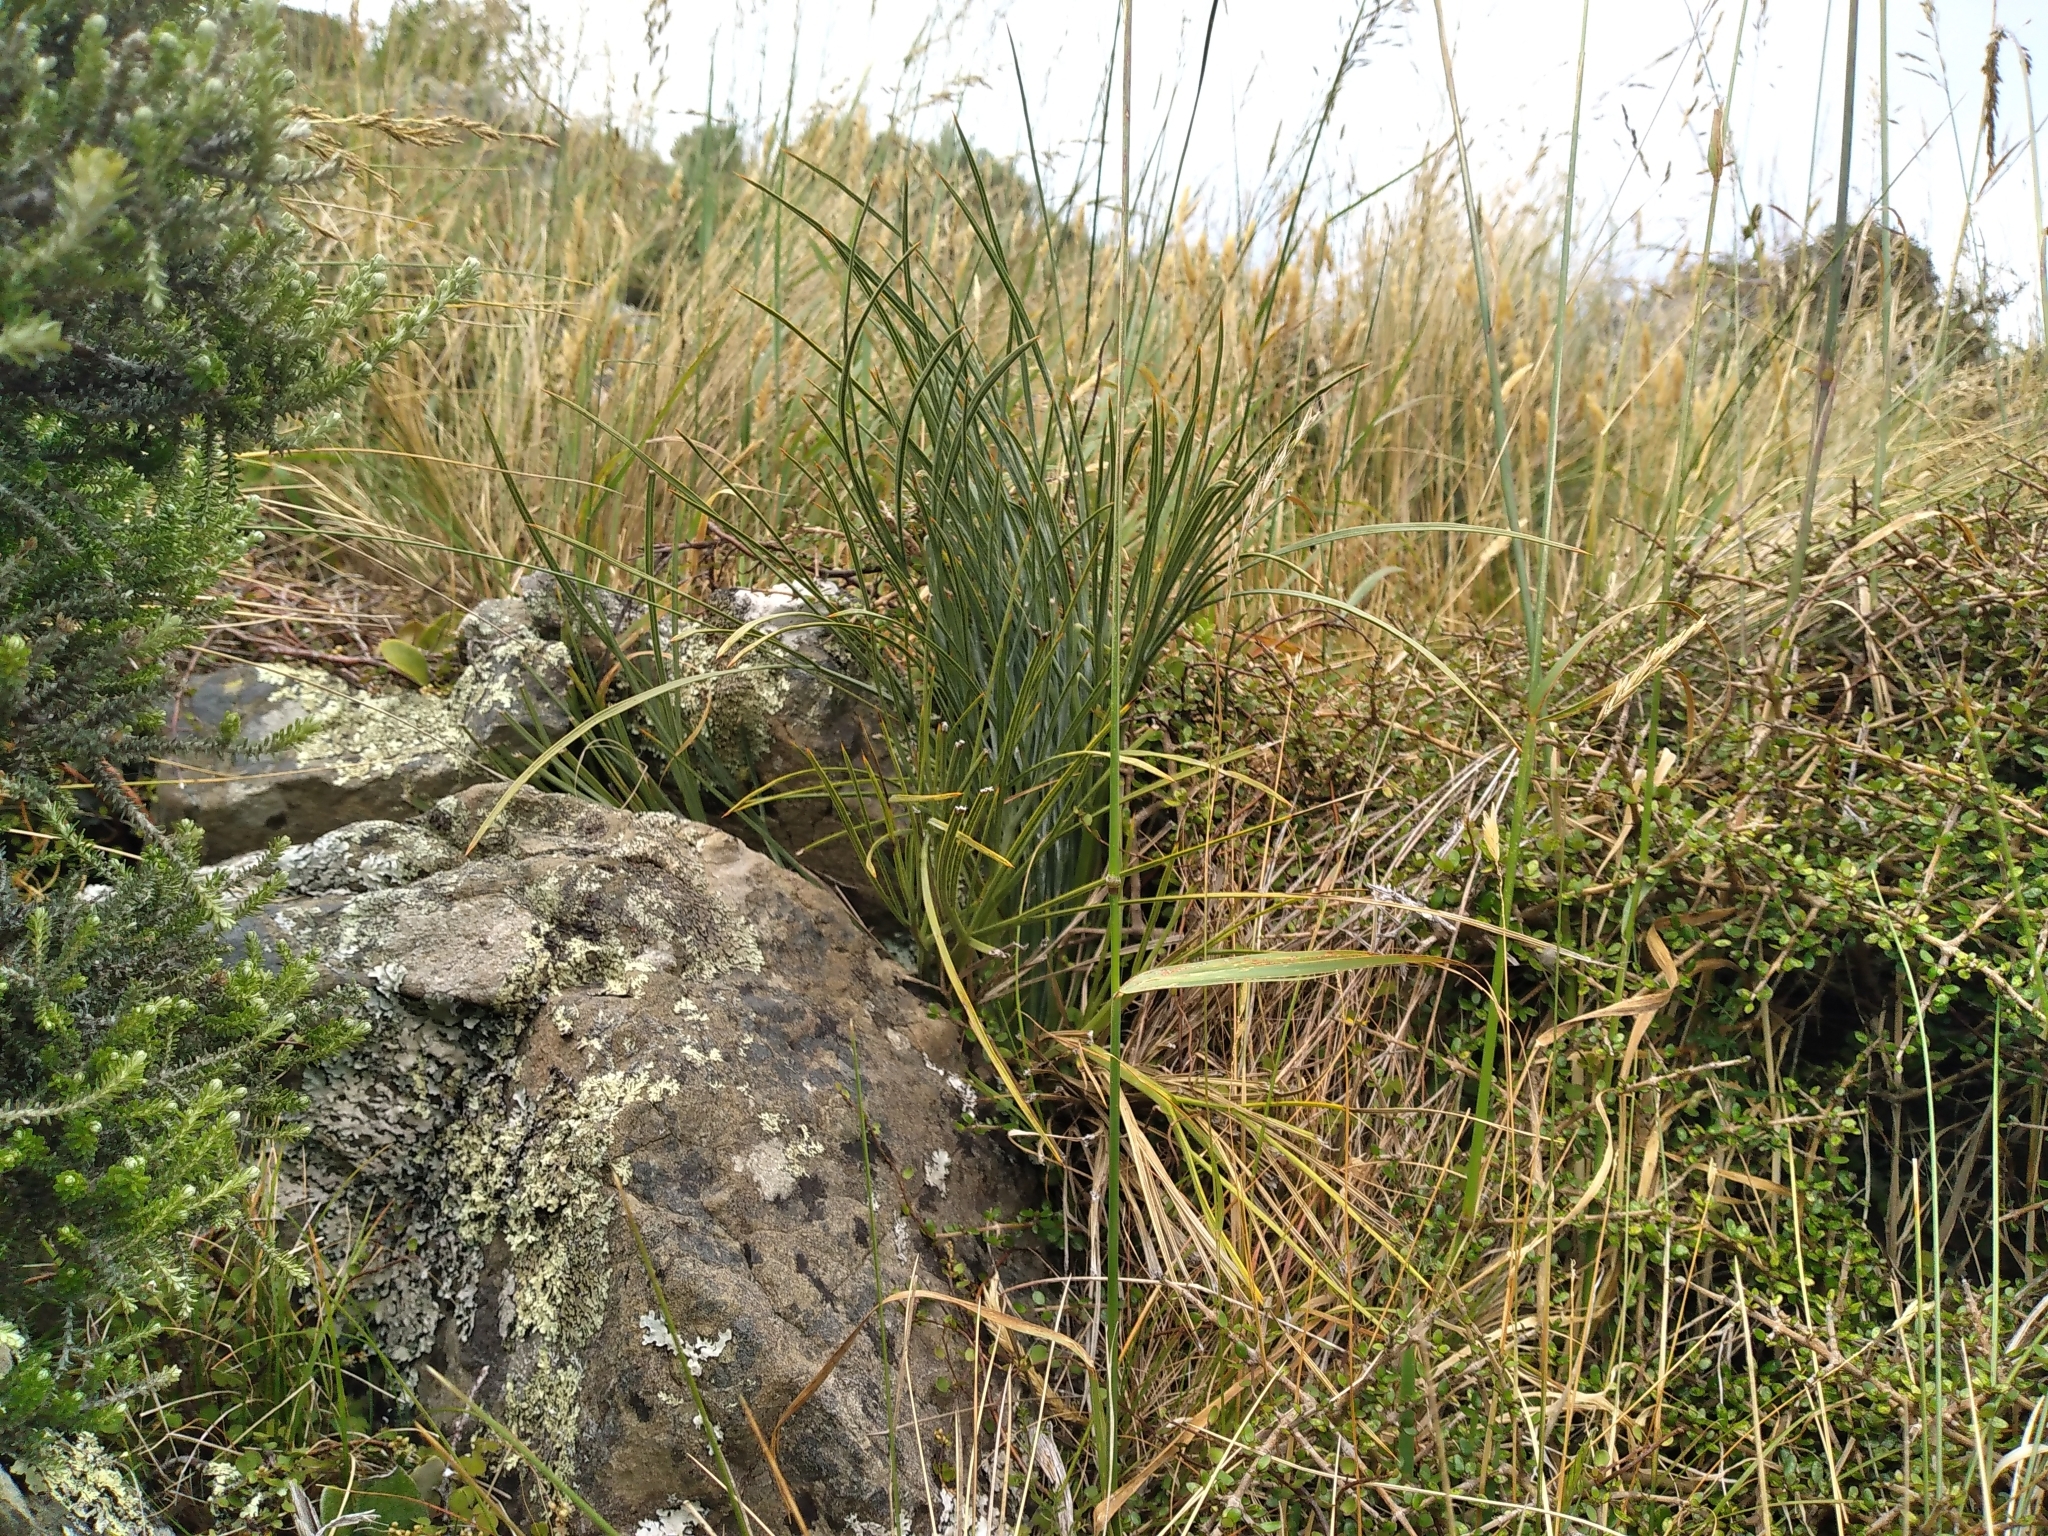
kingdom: Plantae
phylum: Tracheophyta
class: Magnoliopsida
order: Apiales
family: Apiaceae
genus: Aciphylla
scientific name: Aciphylla squarrosa
